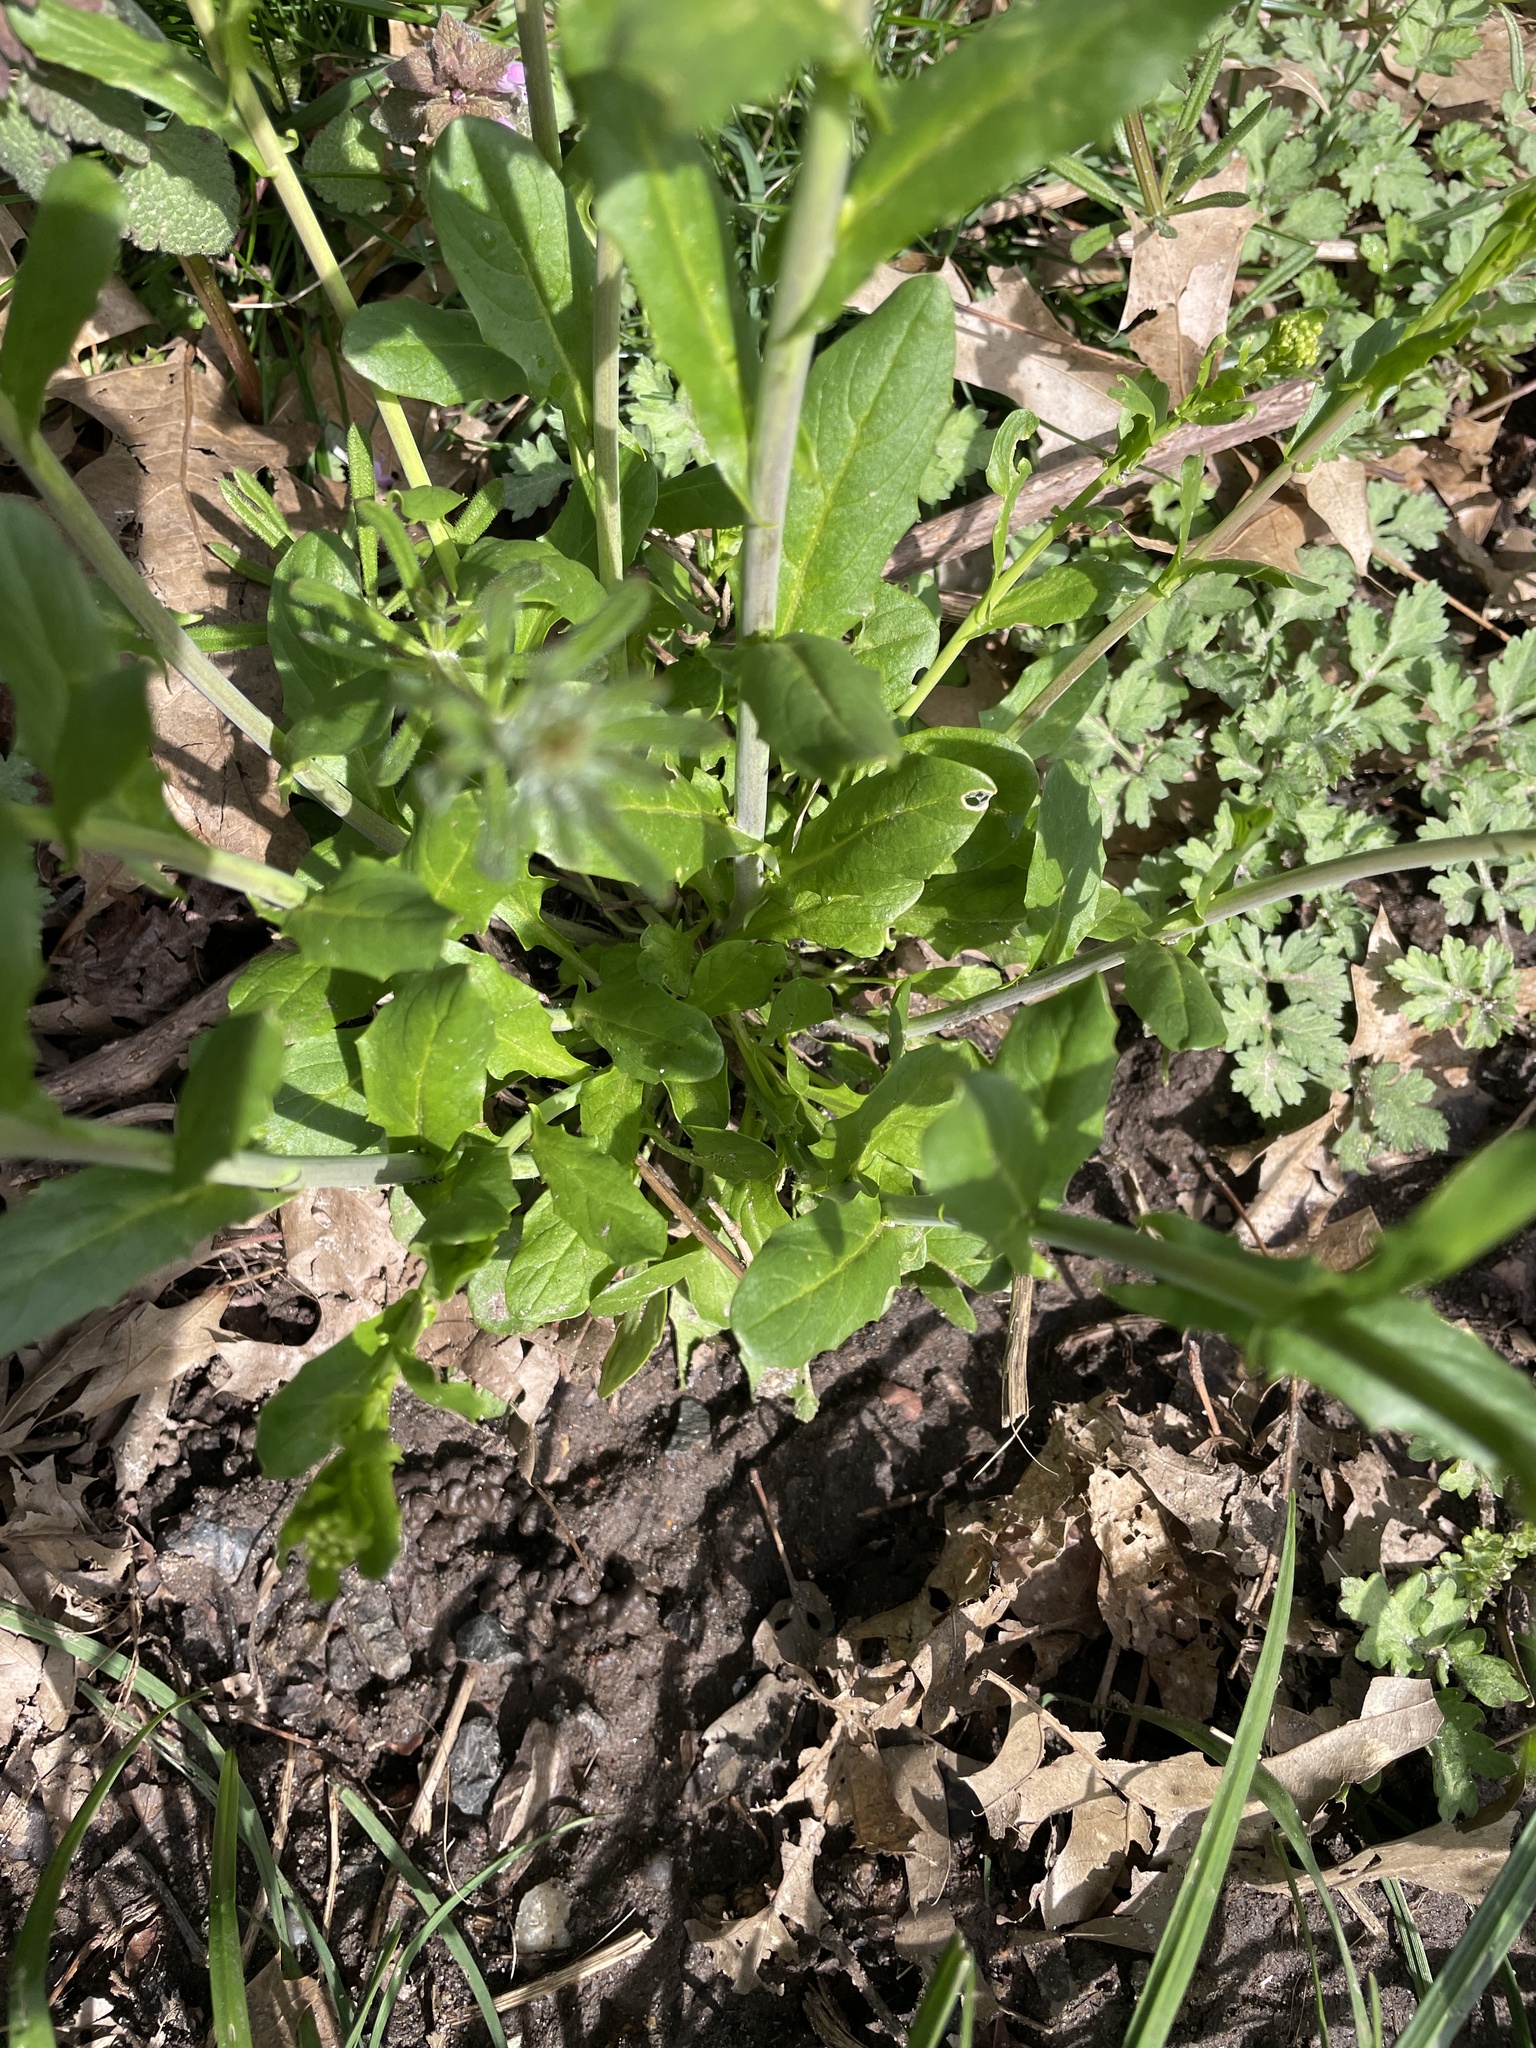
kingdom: Plantae
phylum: Tracheophyta
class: Magnoliopsida
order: Brassicales
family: Brassicaceae
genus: Mummenhoffia
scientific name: Mummenhoffia alliacea
